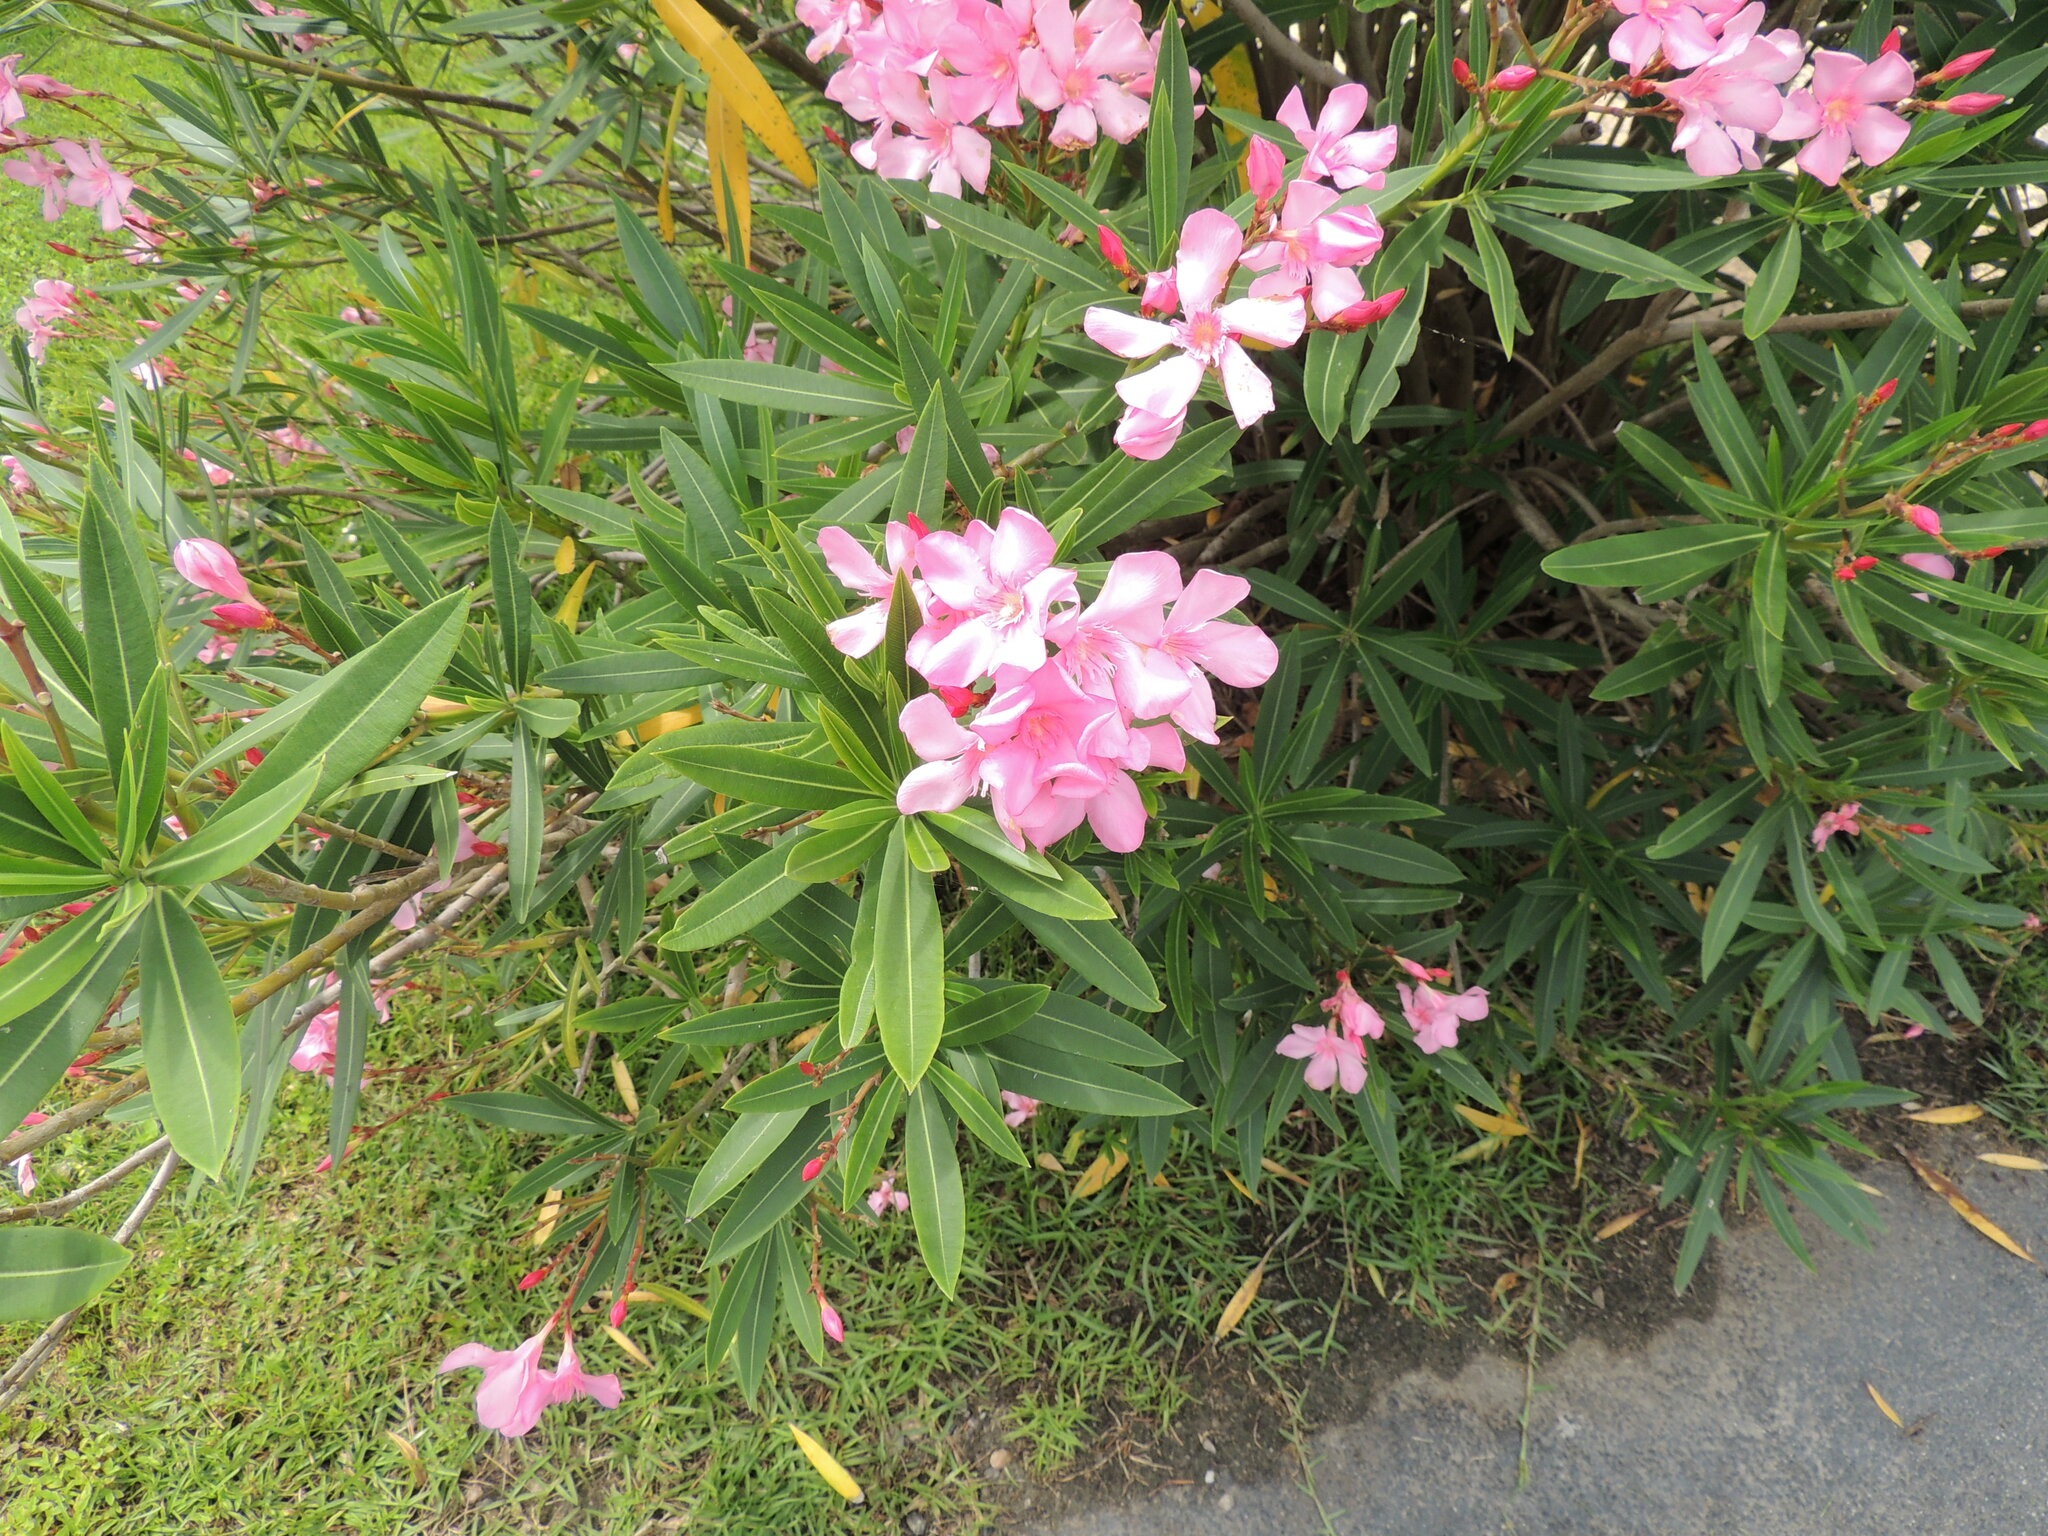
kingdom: Plantae
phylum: Tracheophyta
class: Magnoliopsida
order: Gentianales
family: Apocynaceae
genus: Nerium
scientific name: Nerium oleander
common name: Oleander
